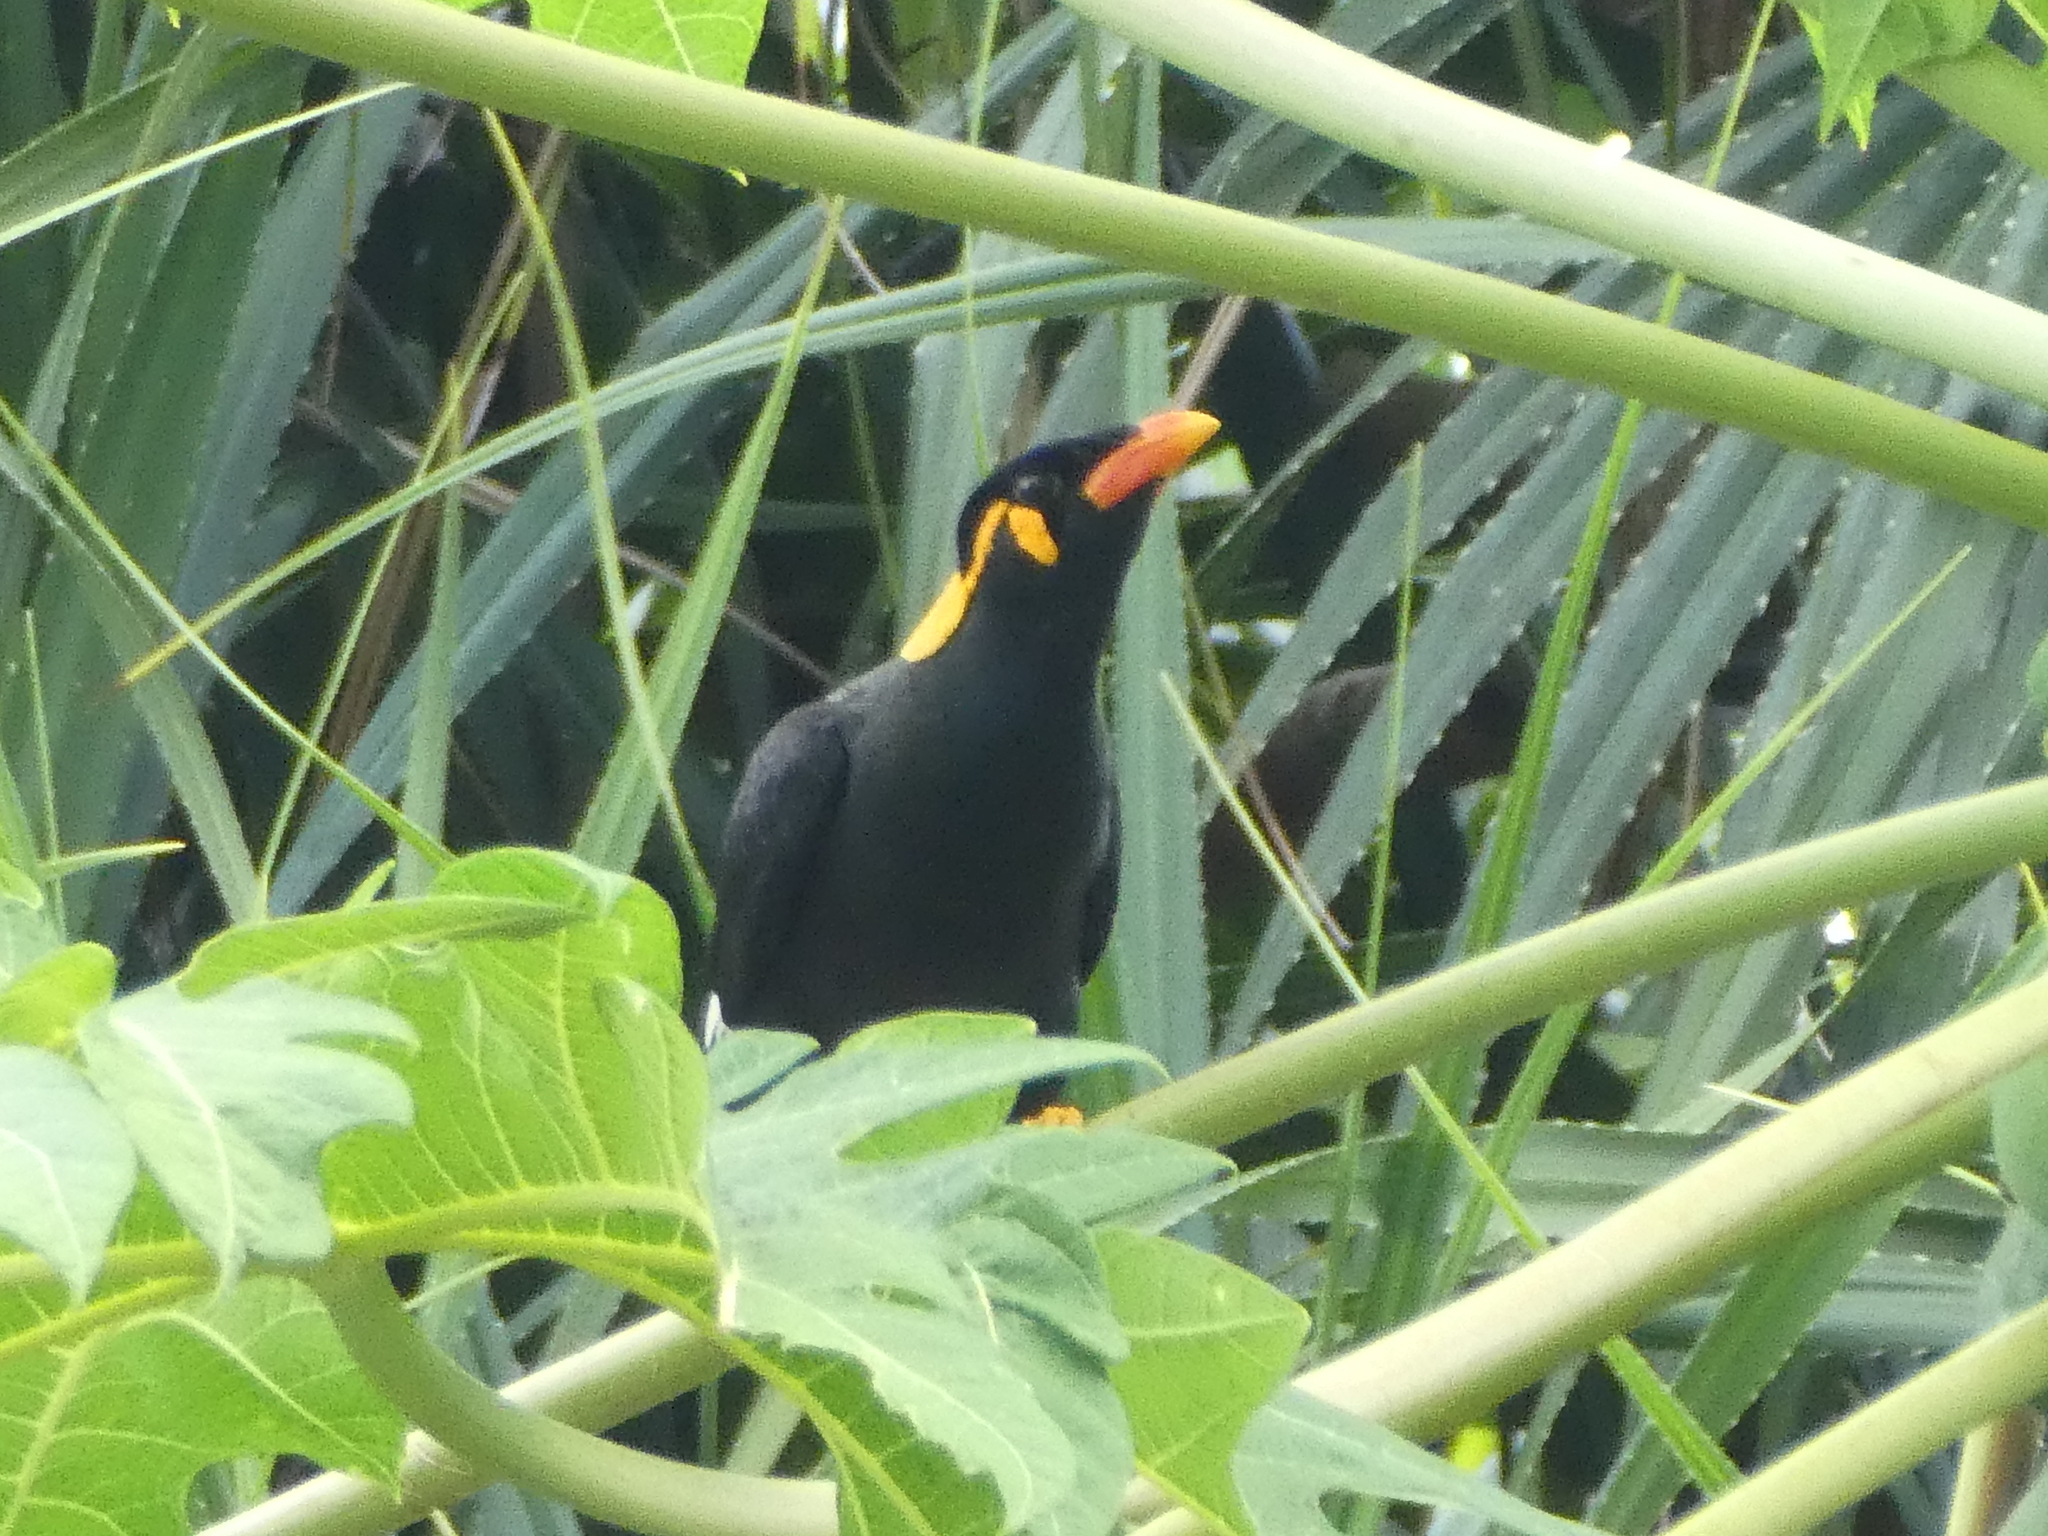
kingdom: Animalia
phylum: Chordata
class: Aves
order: Passeriformes
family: Sturnidae
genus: Gracula
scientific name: Gracula religiosa
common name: Common hill myna
